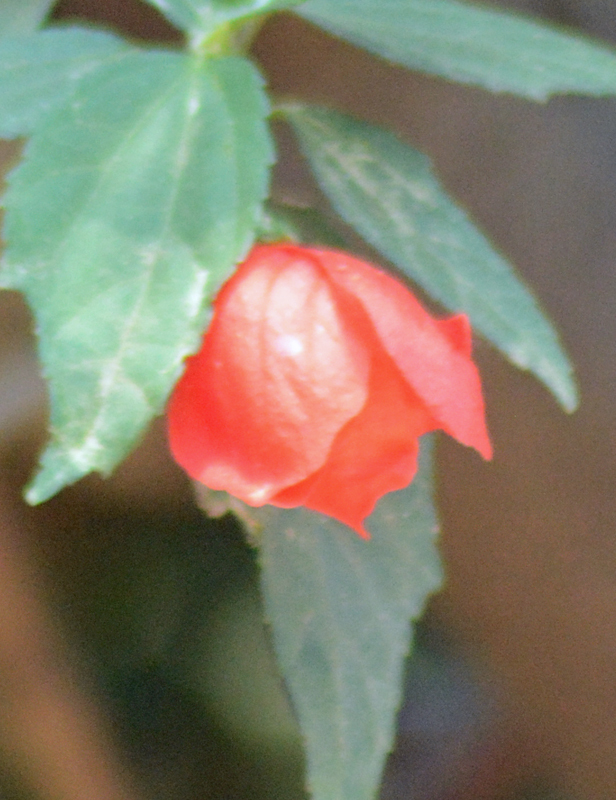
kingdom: Plantae
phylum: Tracheophyta
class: Magnoliopsida
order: Malvales
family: Malvaceae
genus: Malvaviscus
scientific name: Malvaviscus penduliflorus
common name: Mazapan
